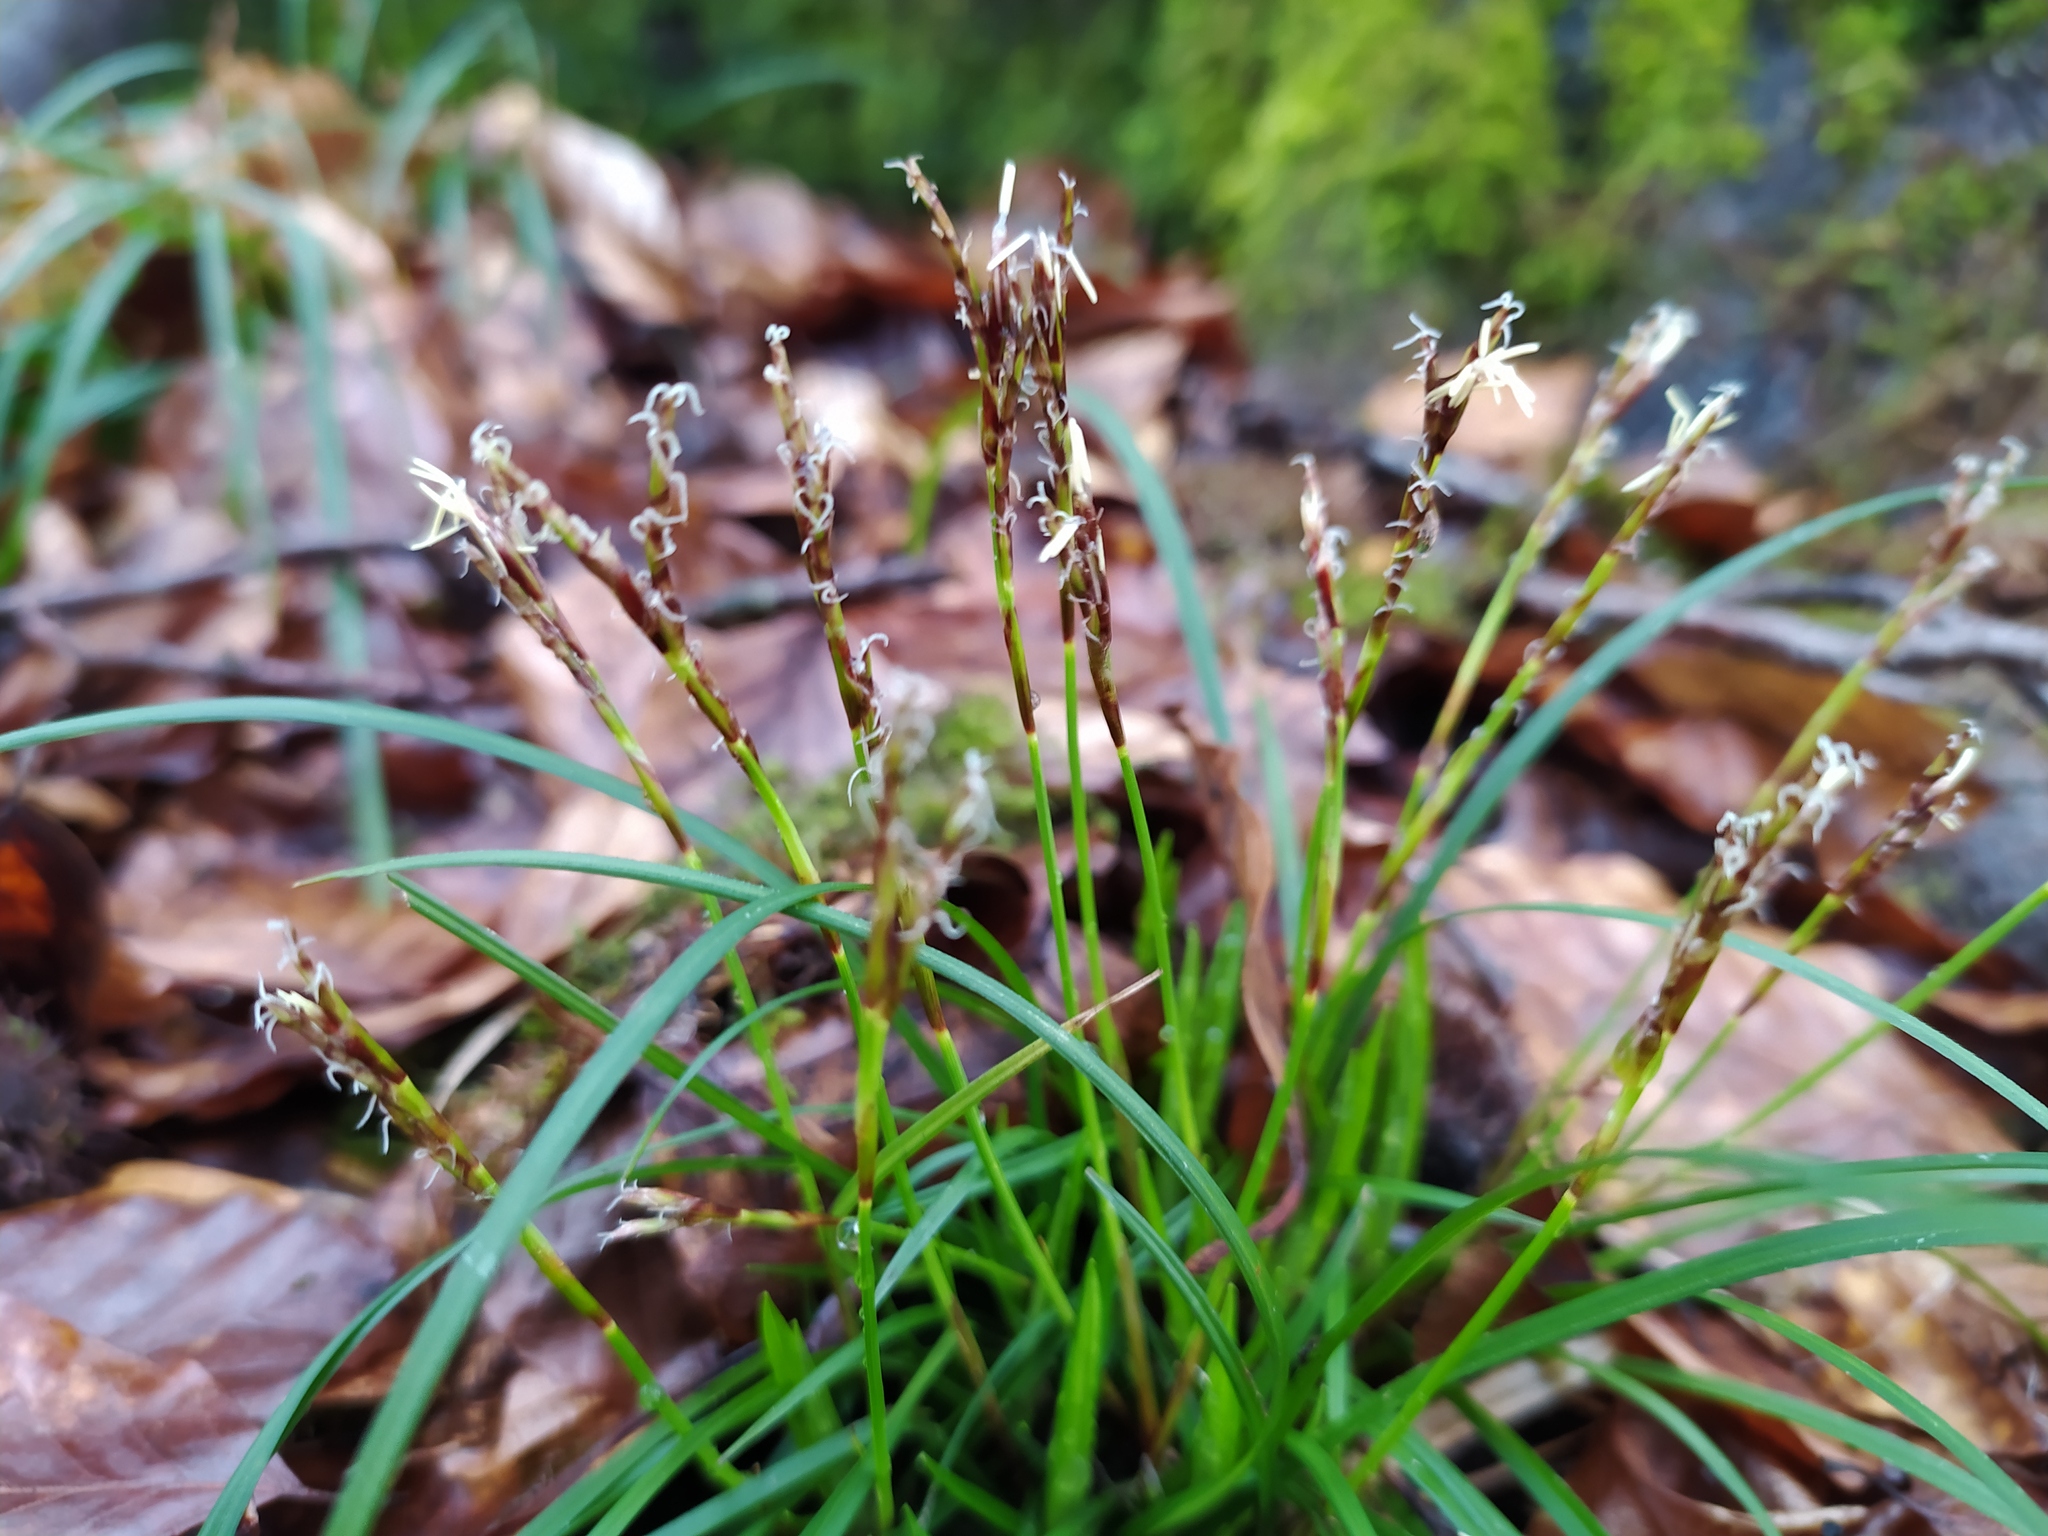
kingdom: Plantae
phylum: Tracheophyta
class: Liliopsida
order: Poales
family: Cyperaceae
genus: Carex
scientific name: Carex digitata
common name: Fingered sedge
